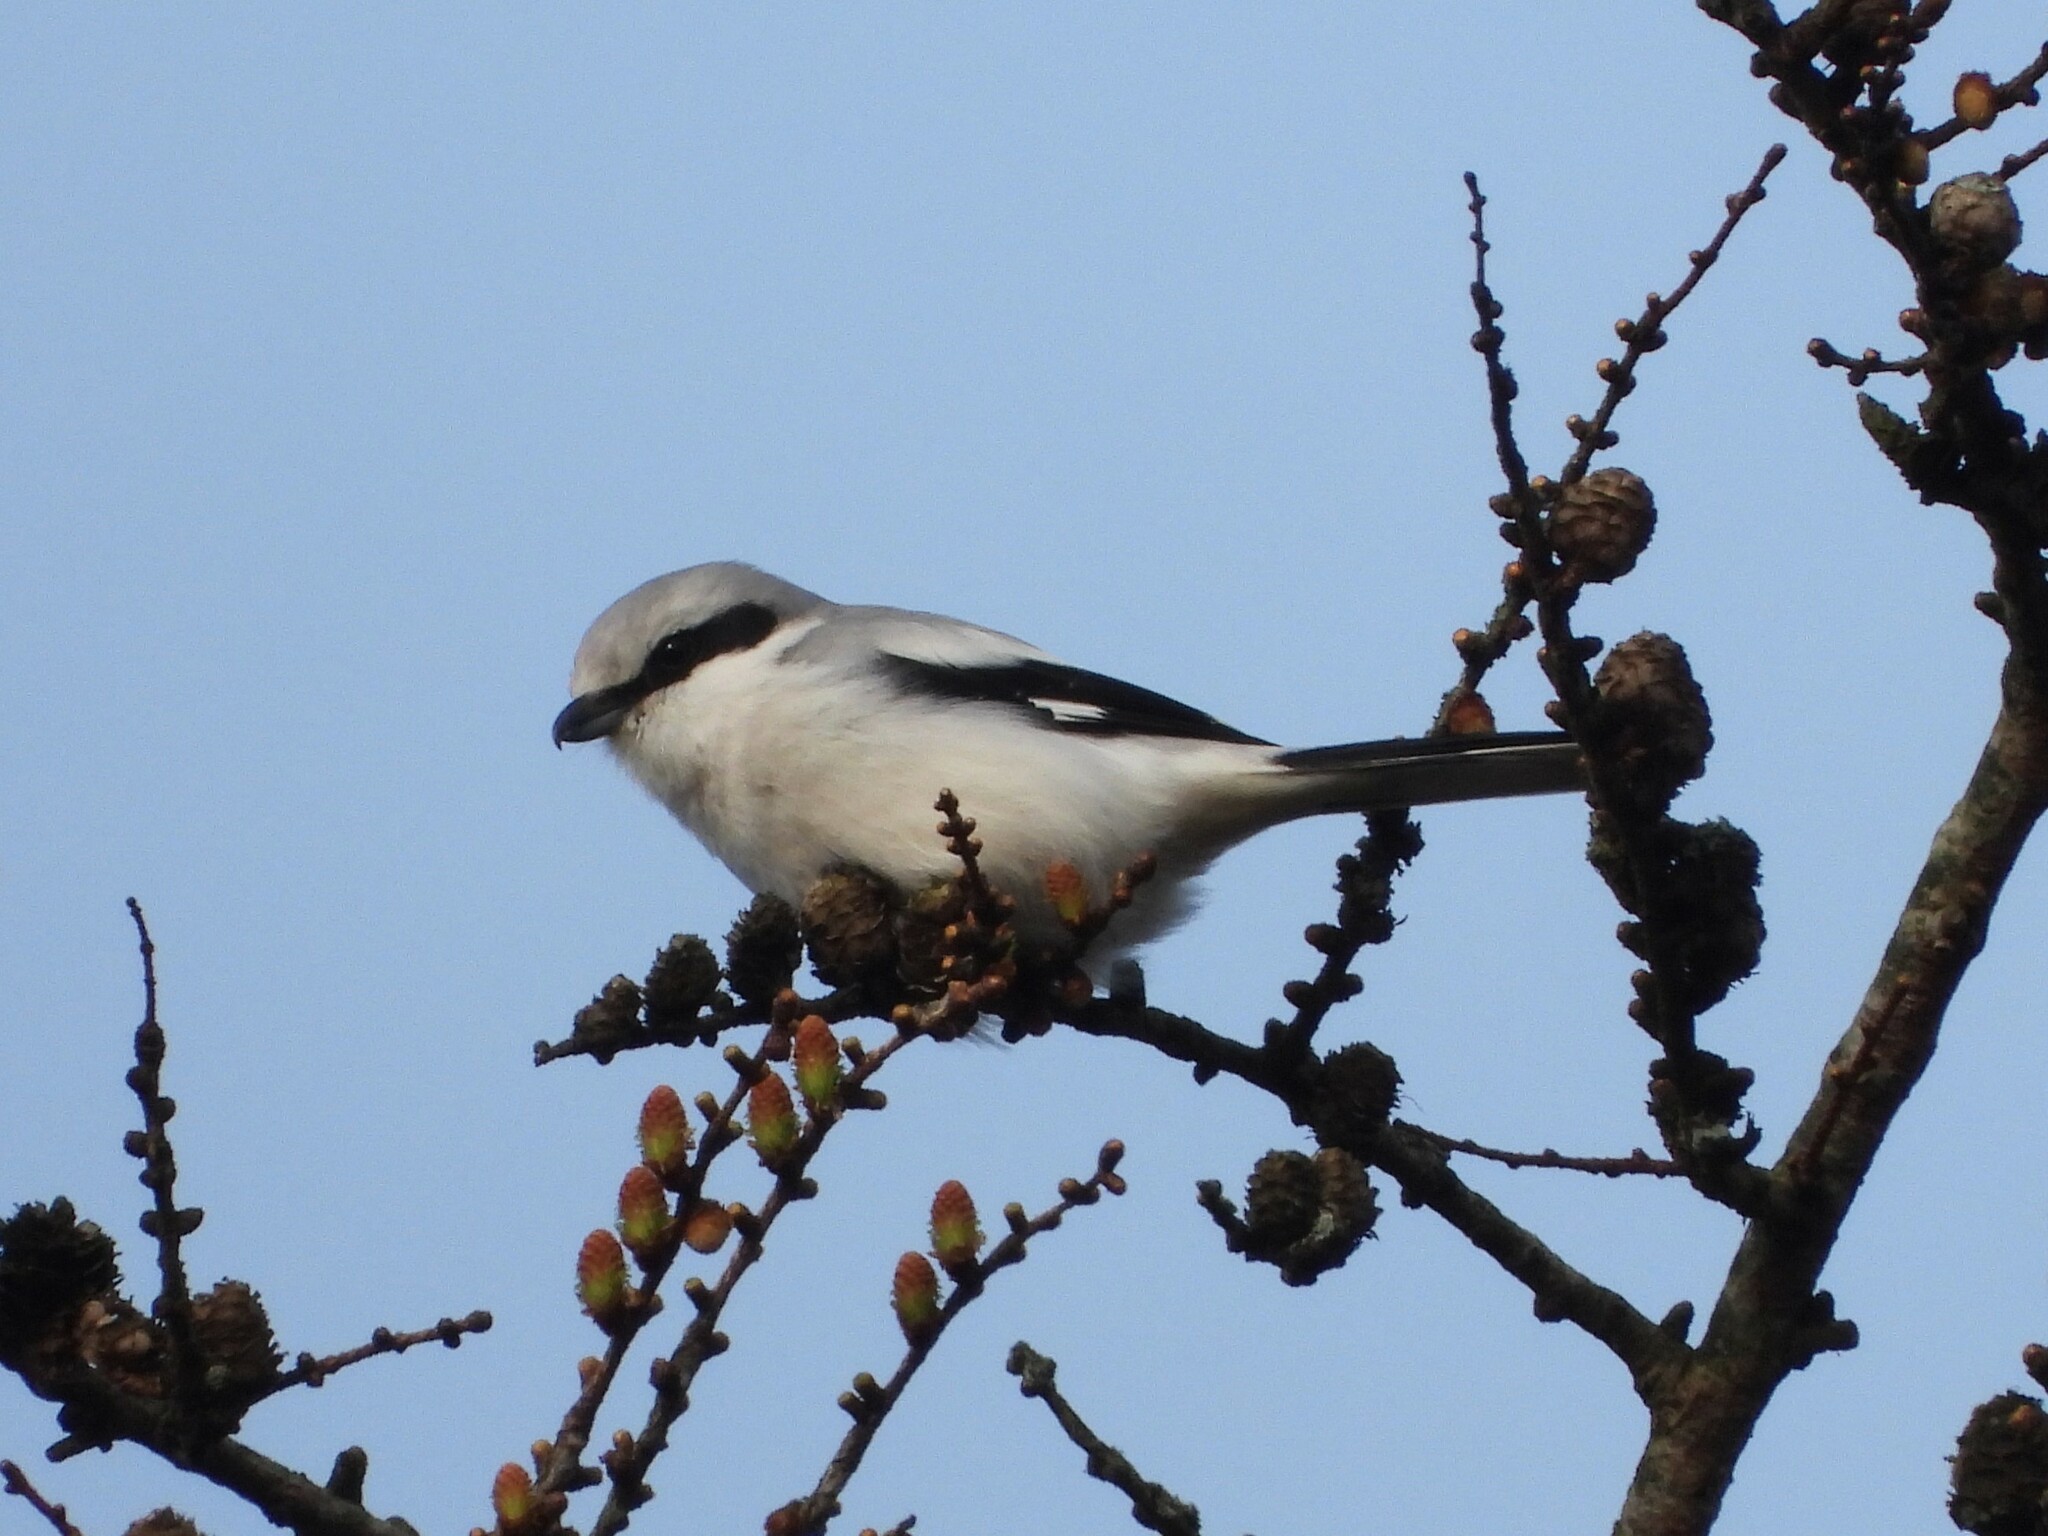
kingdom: Animalia
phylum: Chordata
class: Aves
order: Passeriformes
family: Laniidae
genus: Lanius
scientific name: Lanius excubitor
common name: Great grey shrike
